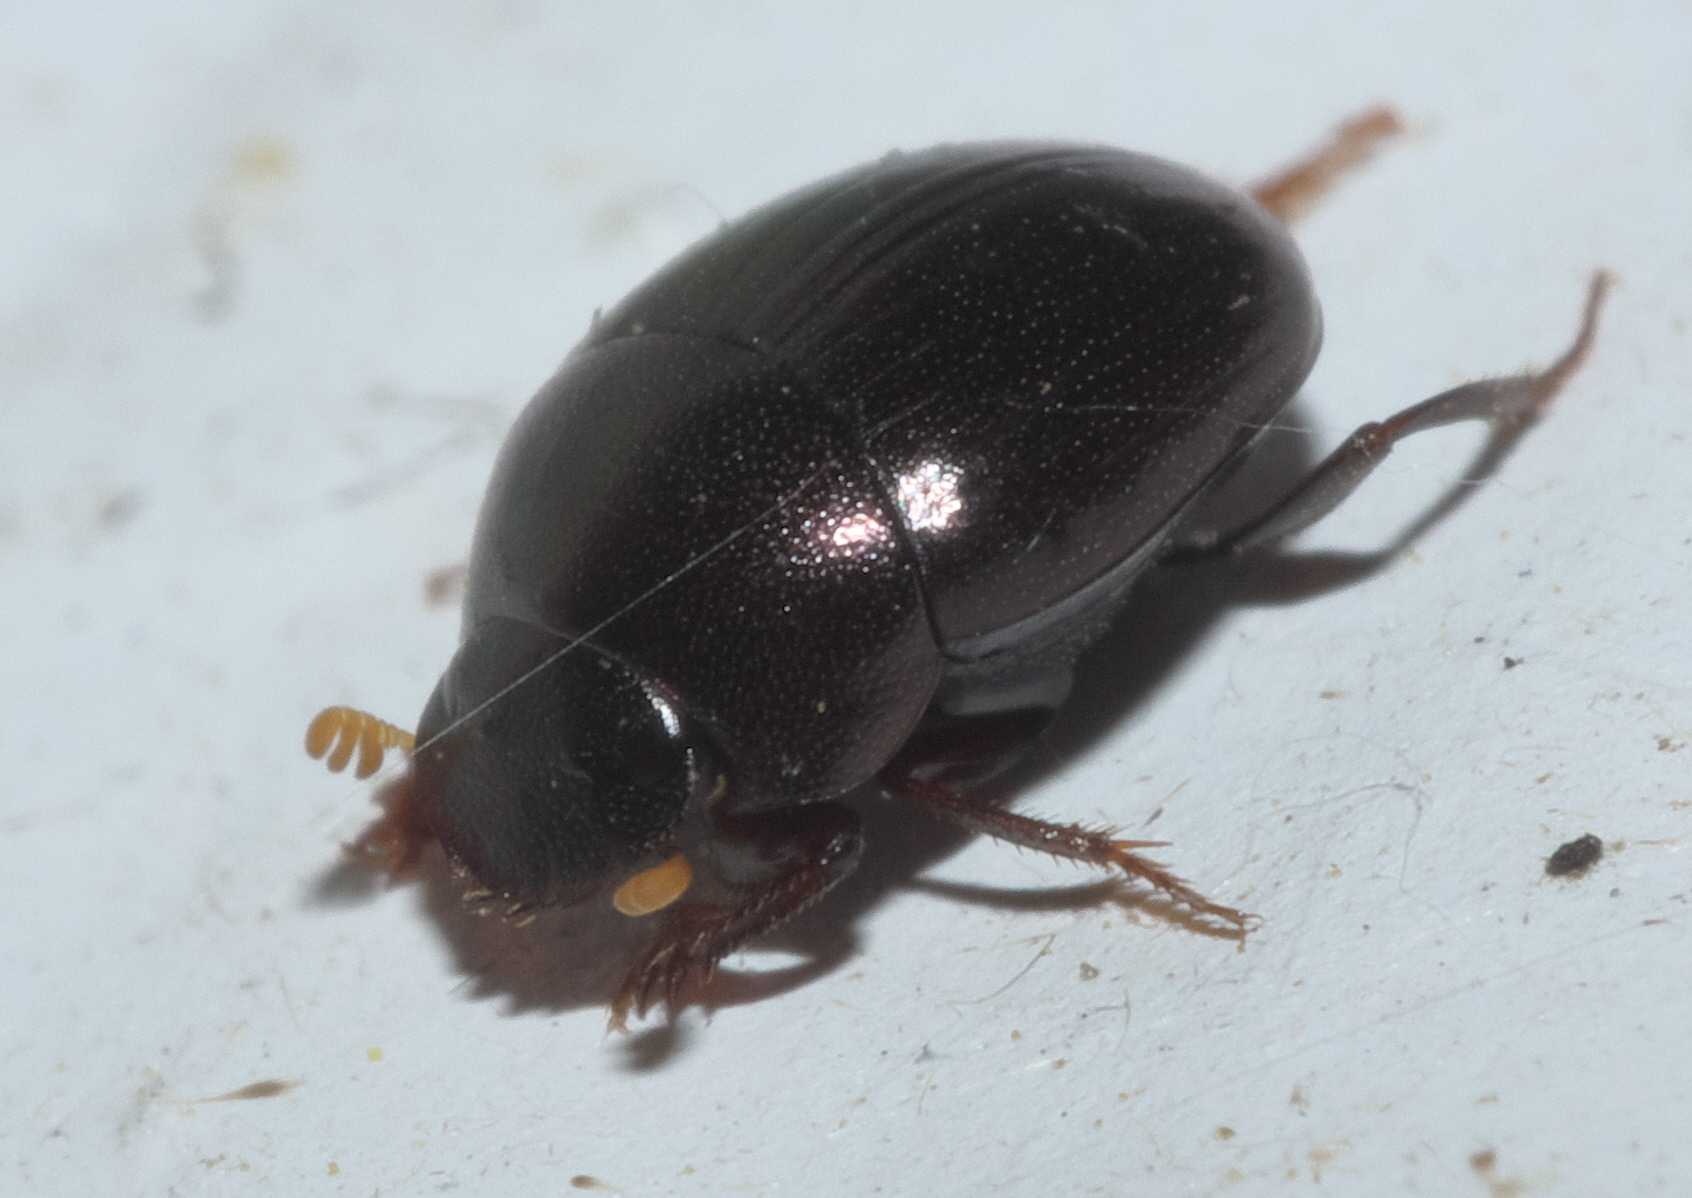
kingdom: Animalia
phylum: Arthropoda
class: Insecta
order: Coleoptera
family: Scarabaeidae
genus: Pseudocanthon
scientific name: Pseudocanthon perplexus
